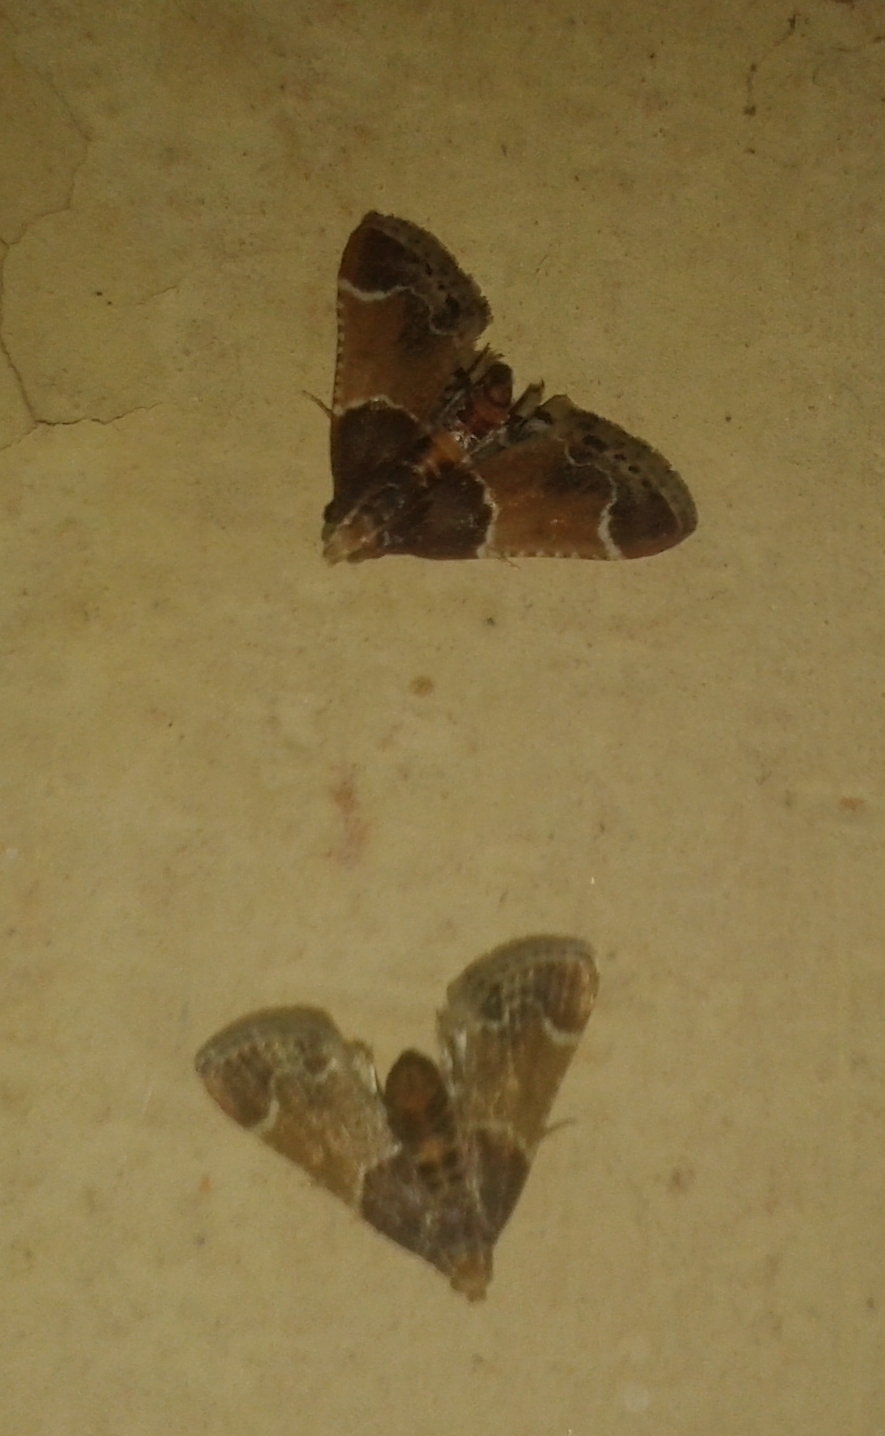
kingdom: Animalia
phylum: Arthropoda
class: Insecta
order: Lepidoptera
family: Pyralidae
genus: Pyralis
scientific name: Pyralis farinalis
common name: Meal moth
